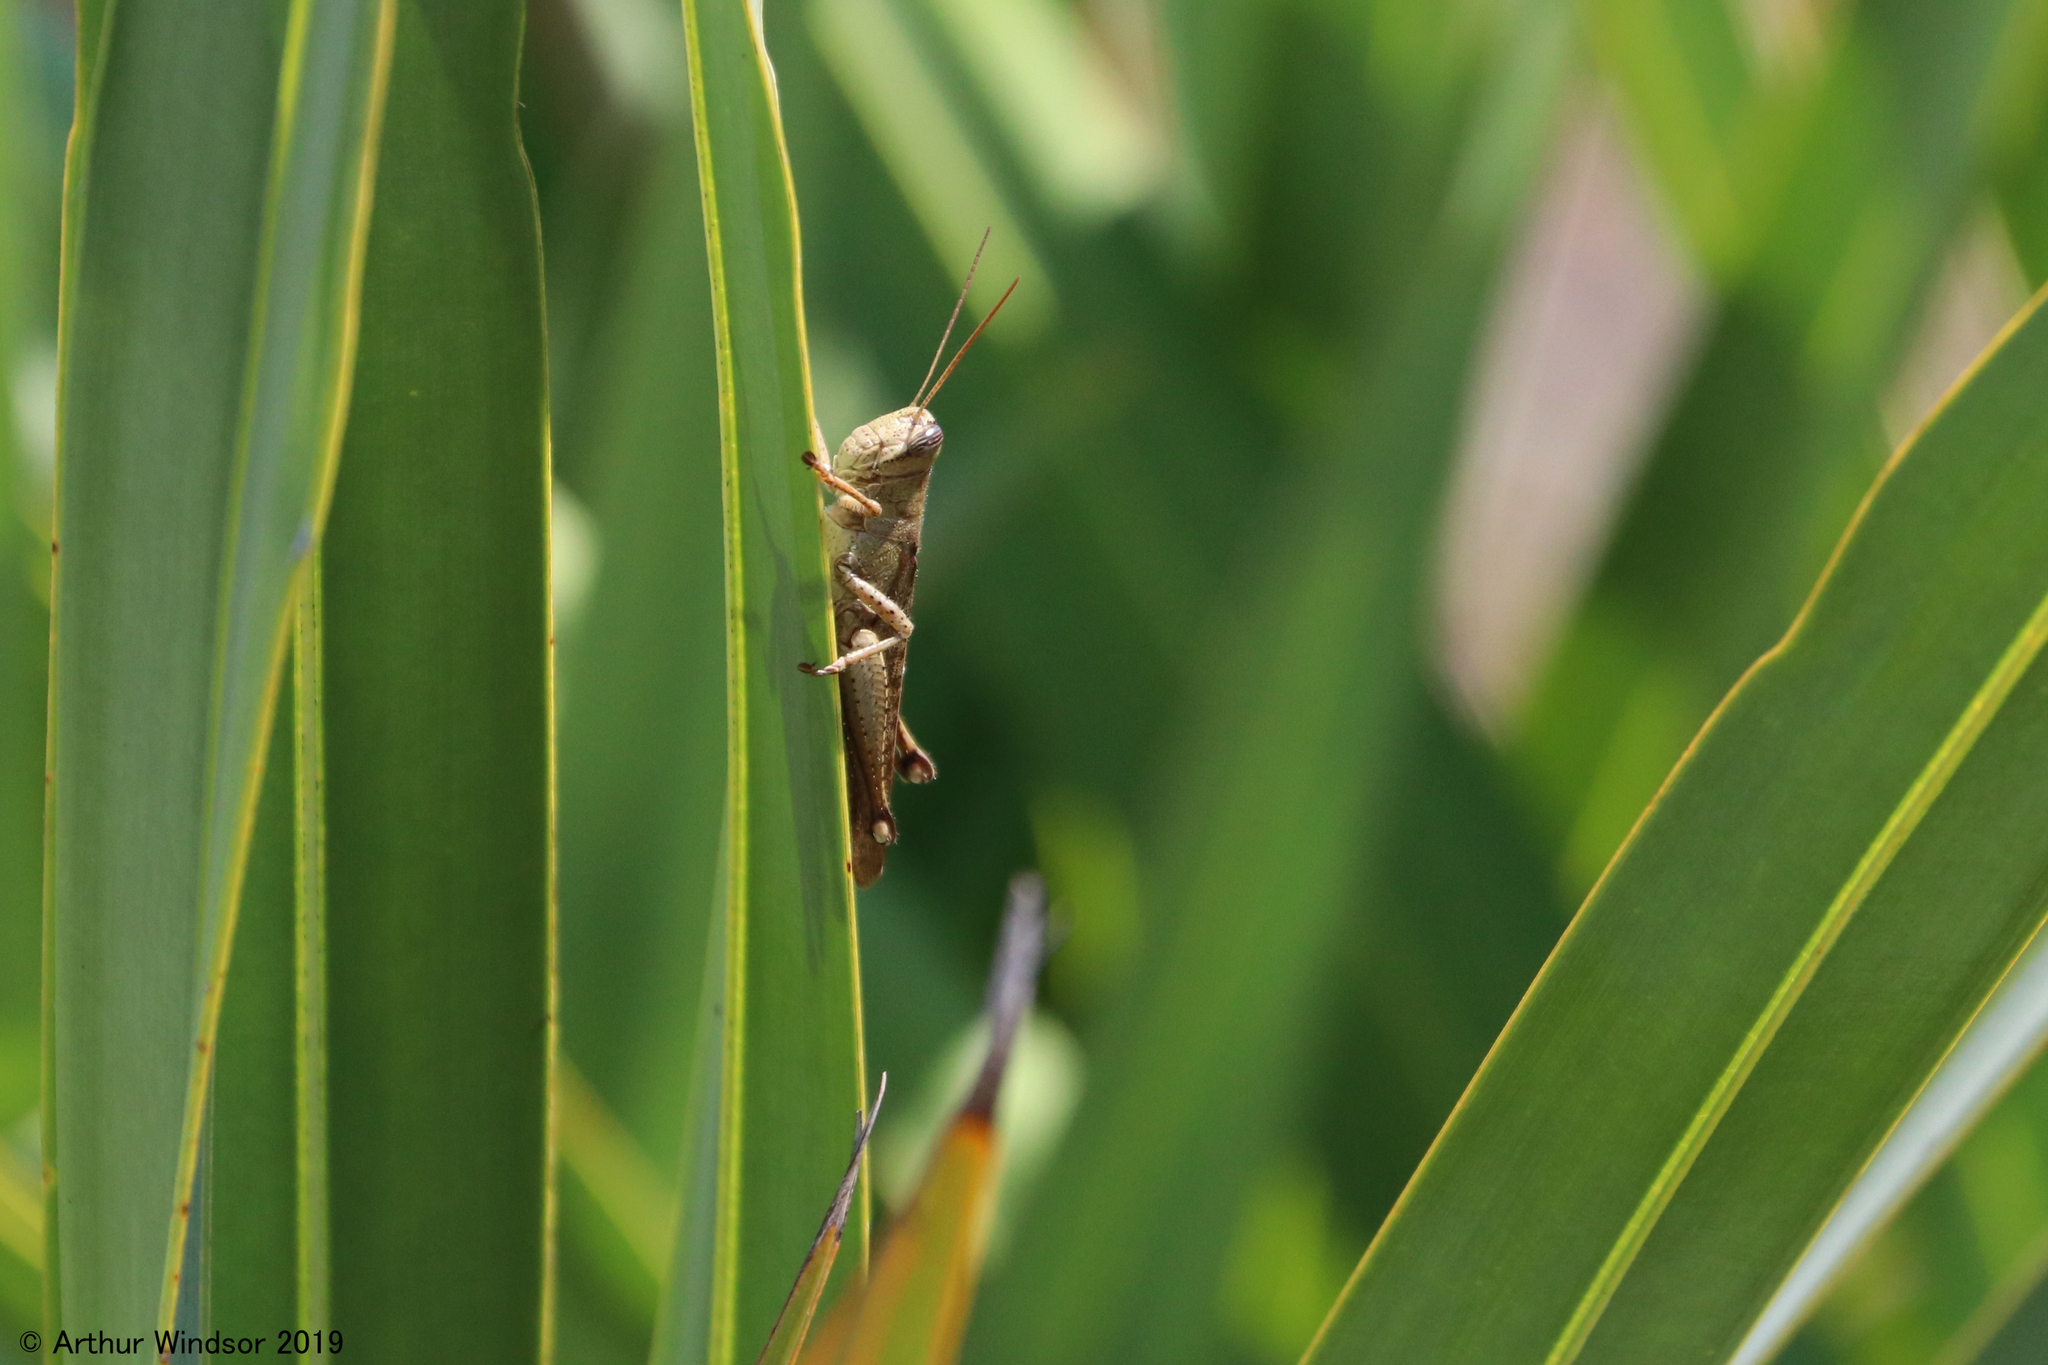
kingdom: Animalia
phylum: Arthropoda
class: Insecta
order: Orthoptera
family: Acrididae
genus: Schistocerca
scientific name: Schistocerca rubiginosa
